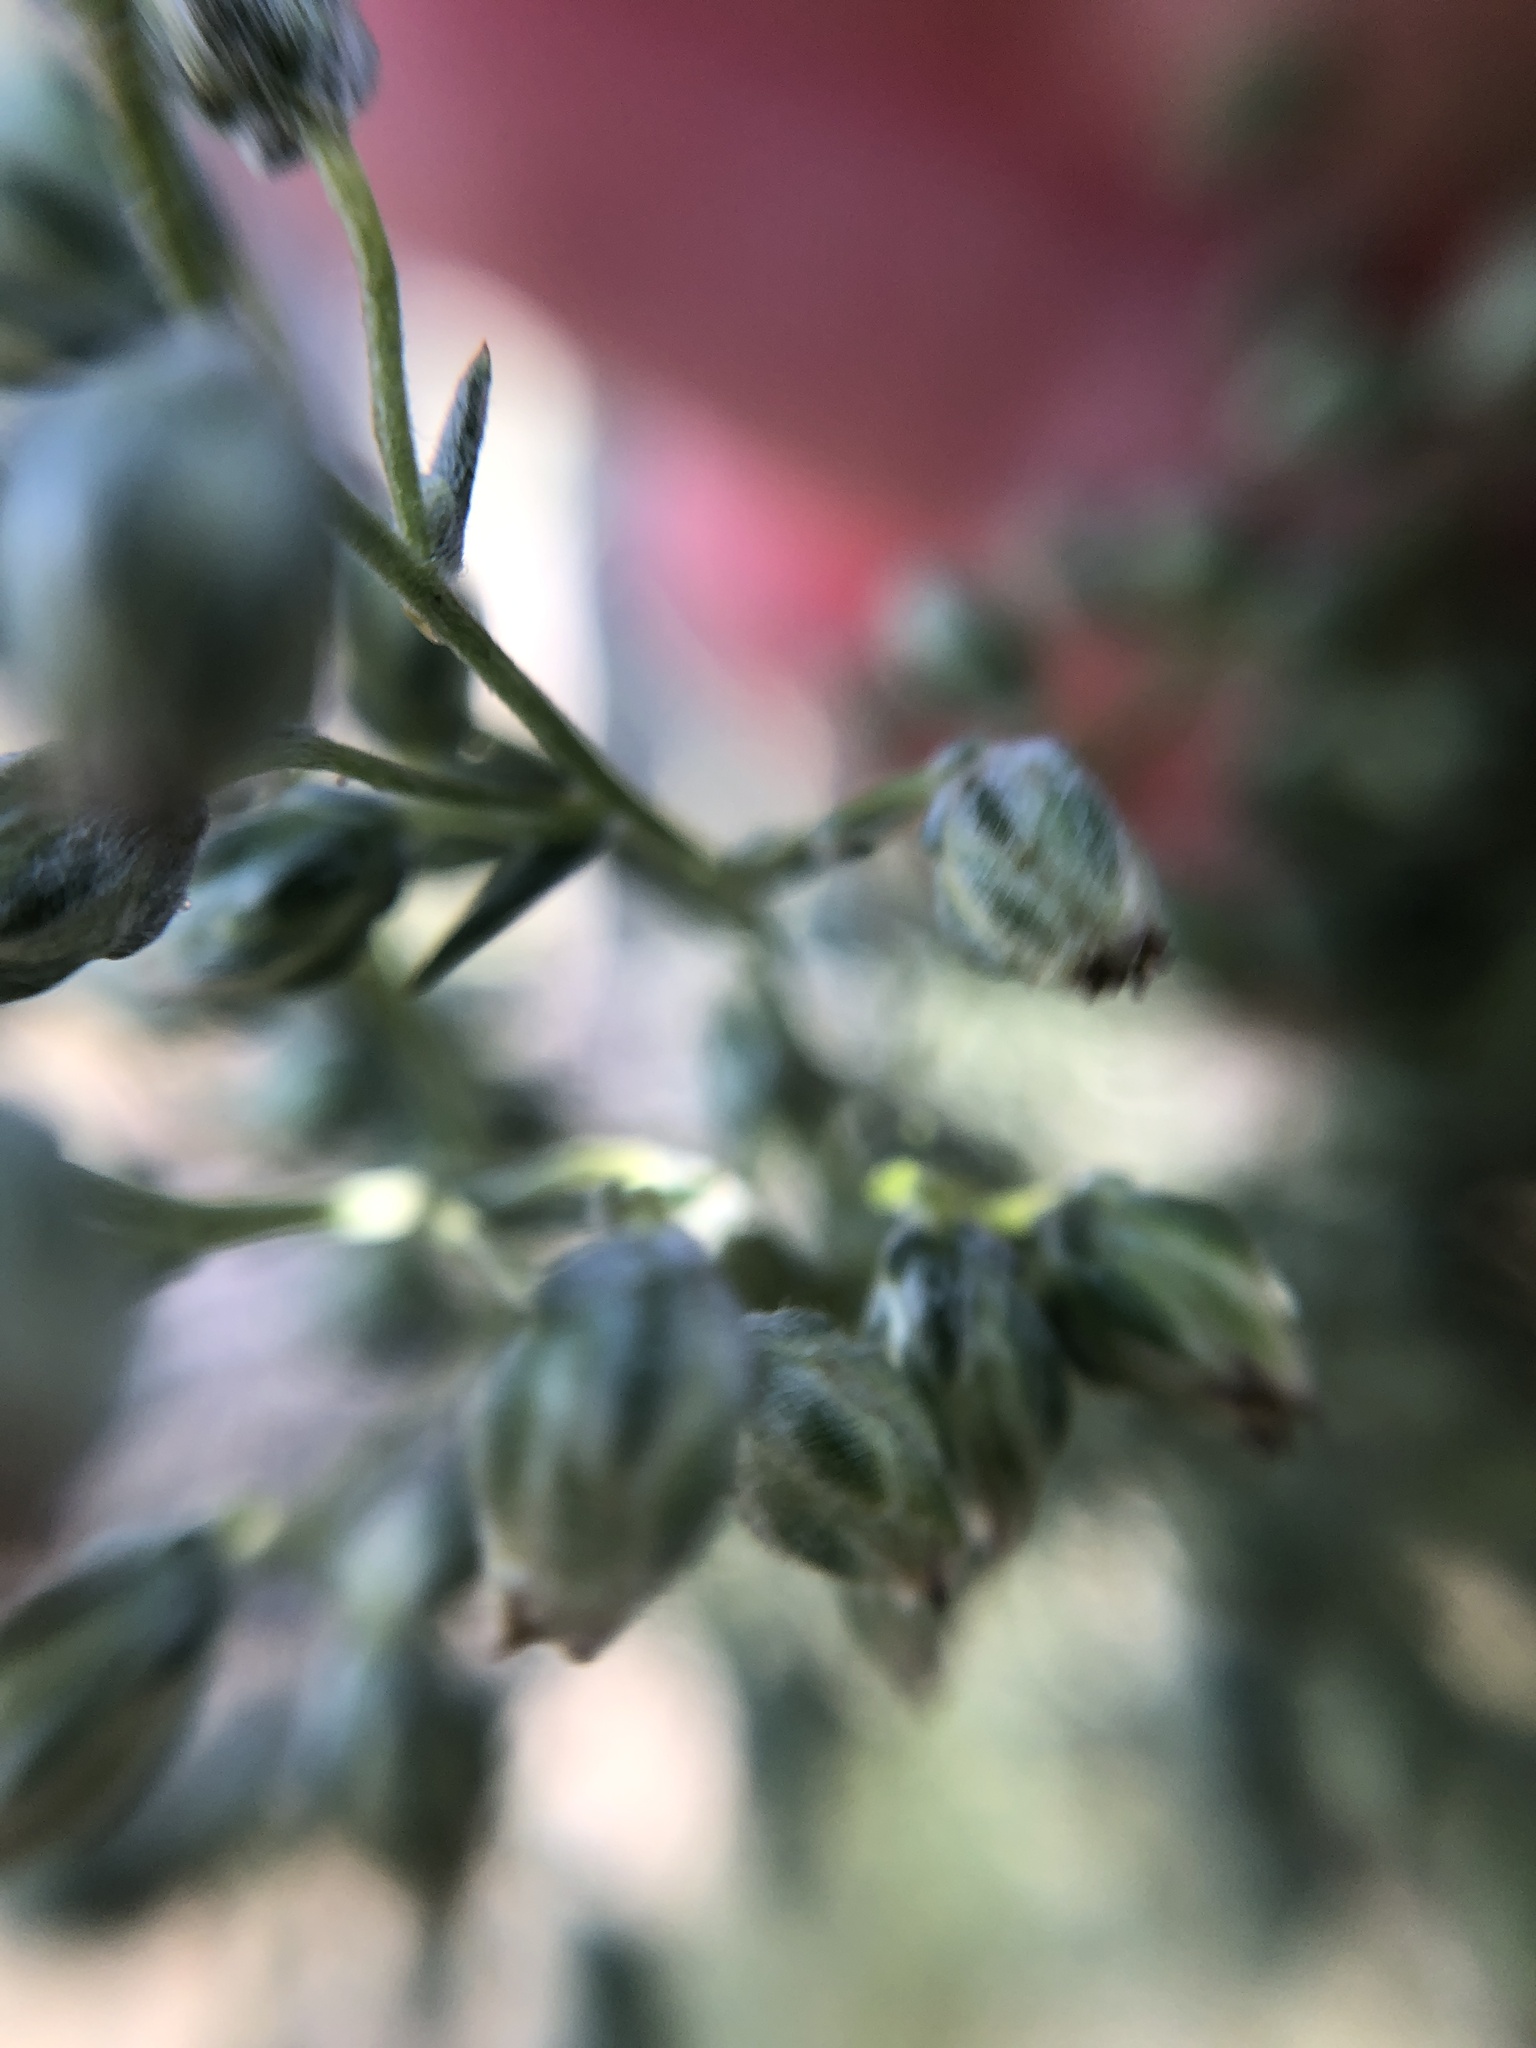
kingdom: Plantae
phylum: Tracheophyta
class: Magnoliopsida
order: Asterales
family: Asteraceae
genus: Artemisia
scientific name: Artemisia campestris
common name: Field wormwood
